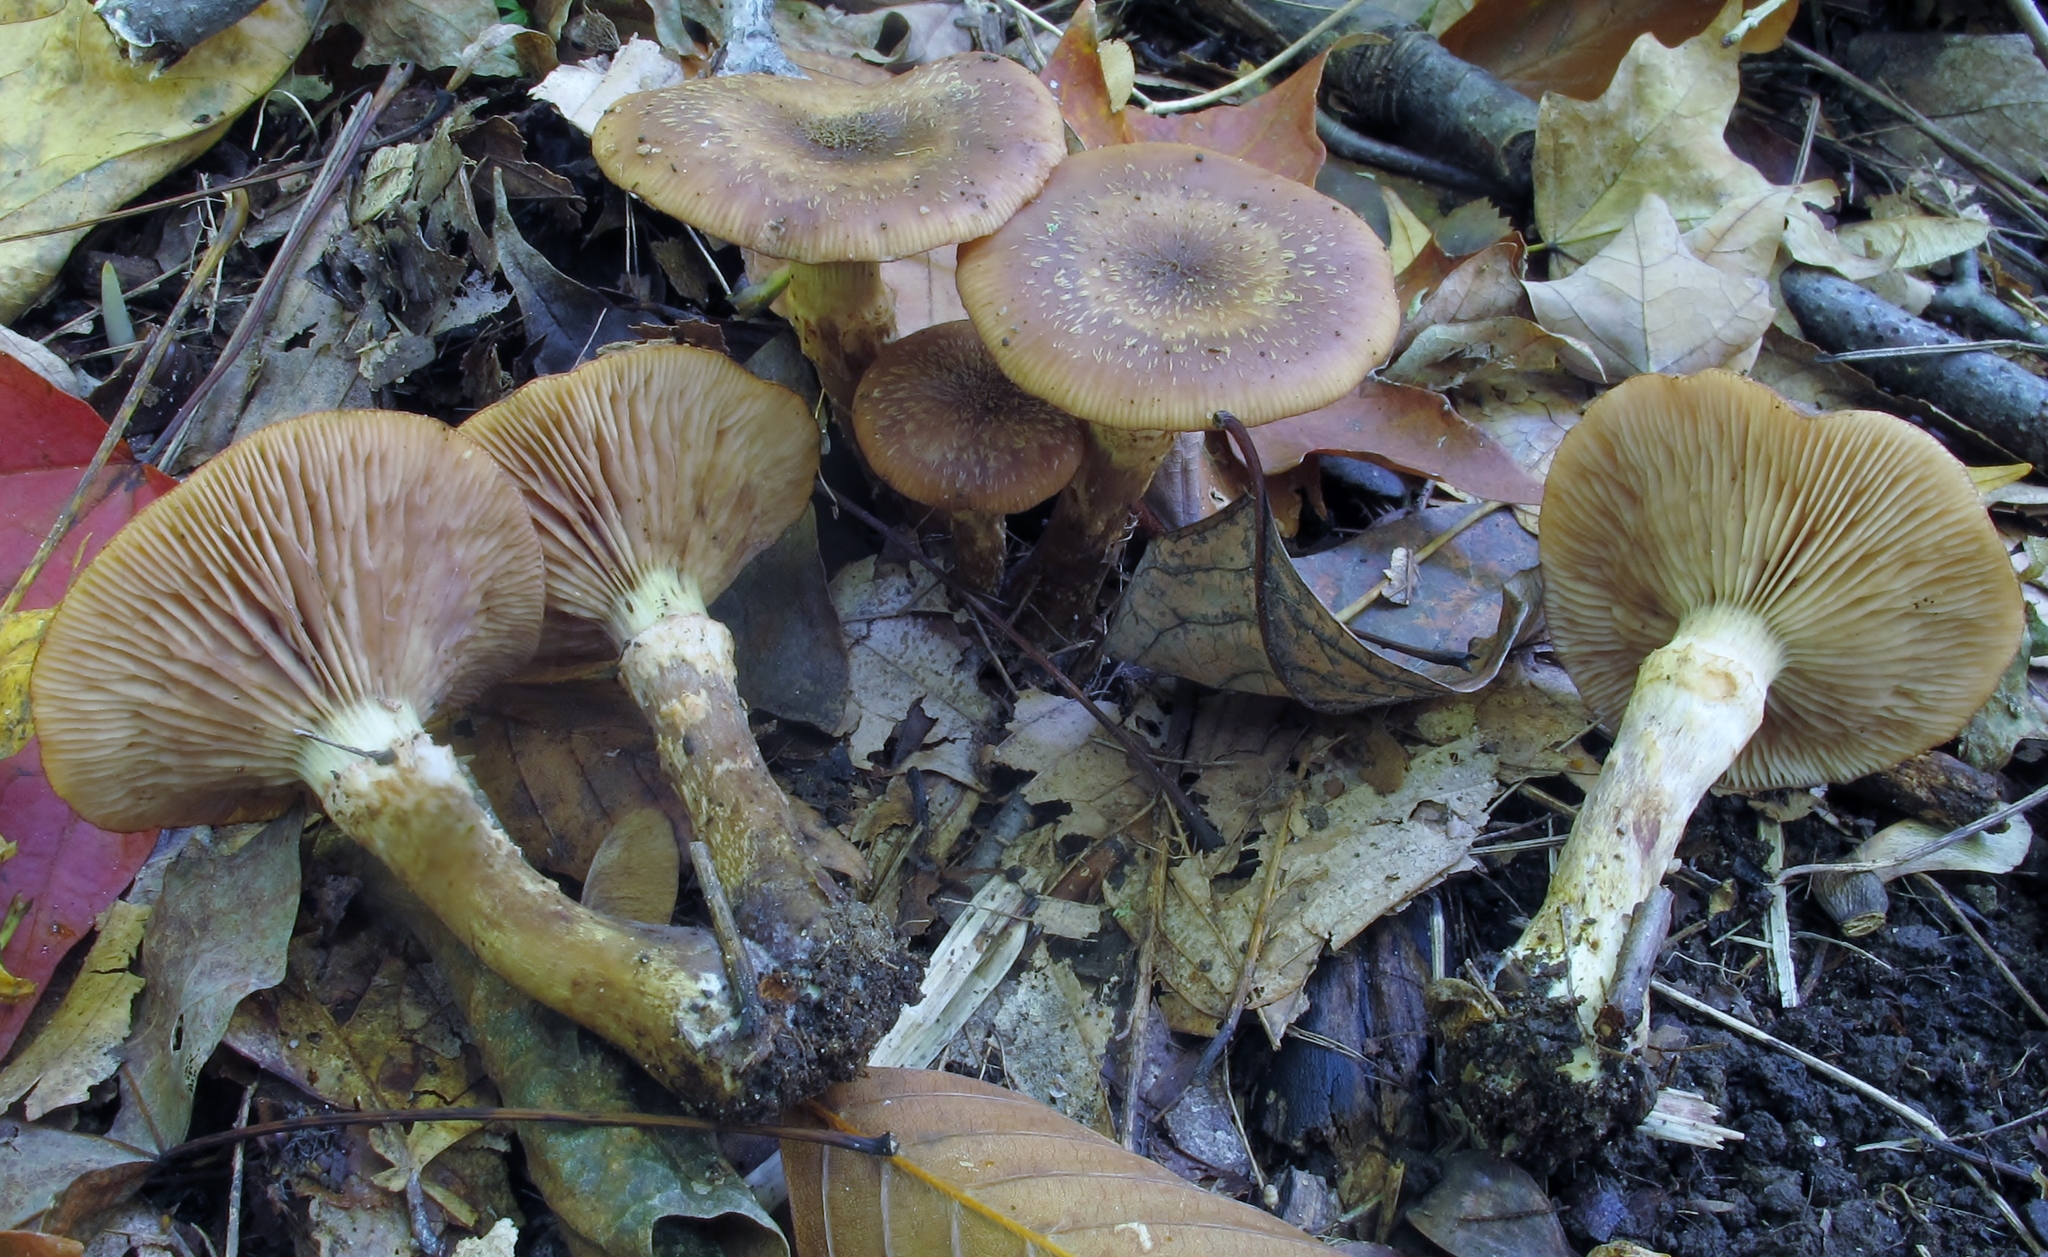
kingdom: Fungi
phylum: Basidiomycota
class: Agaricomycetes
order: Agaricales
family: Physalacriaceae
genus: Armillaria
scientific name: Armillaria gallica
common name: Bulbous honey fungus
